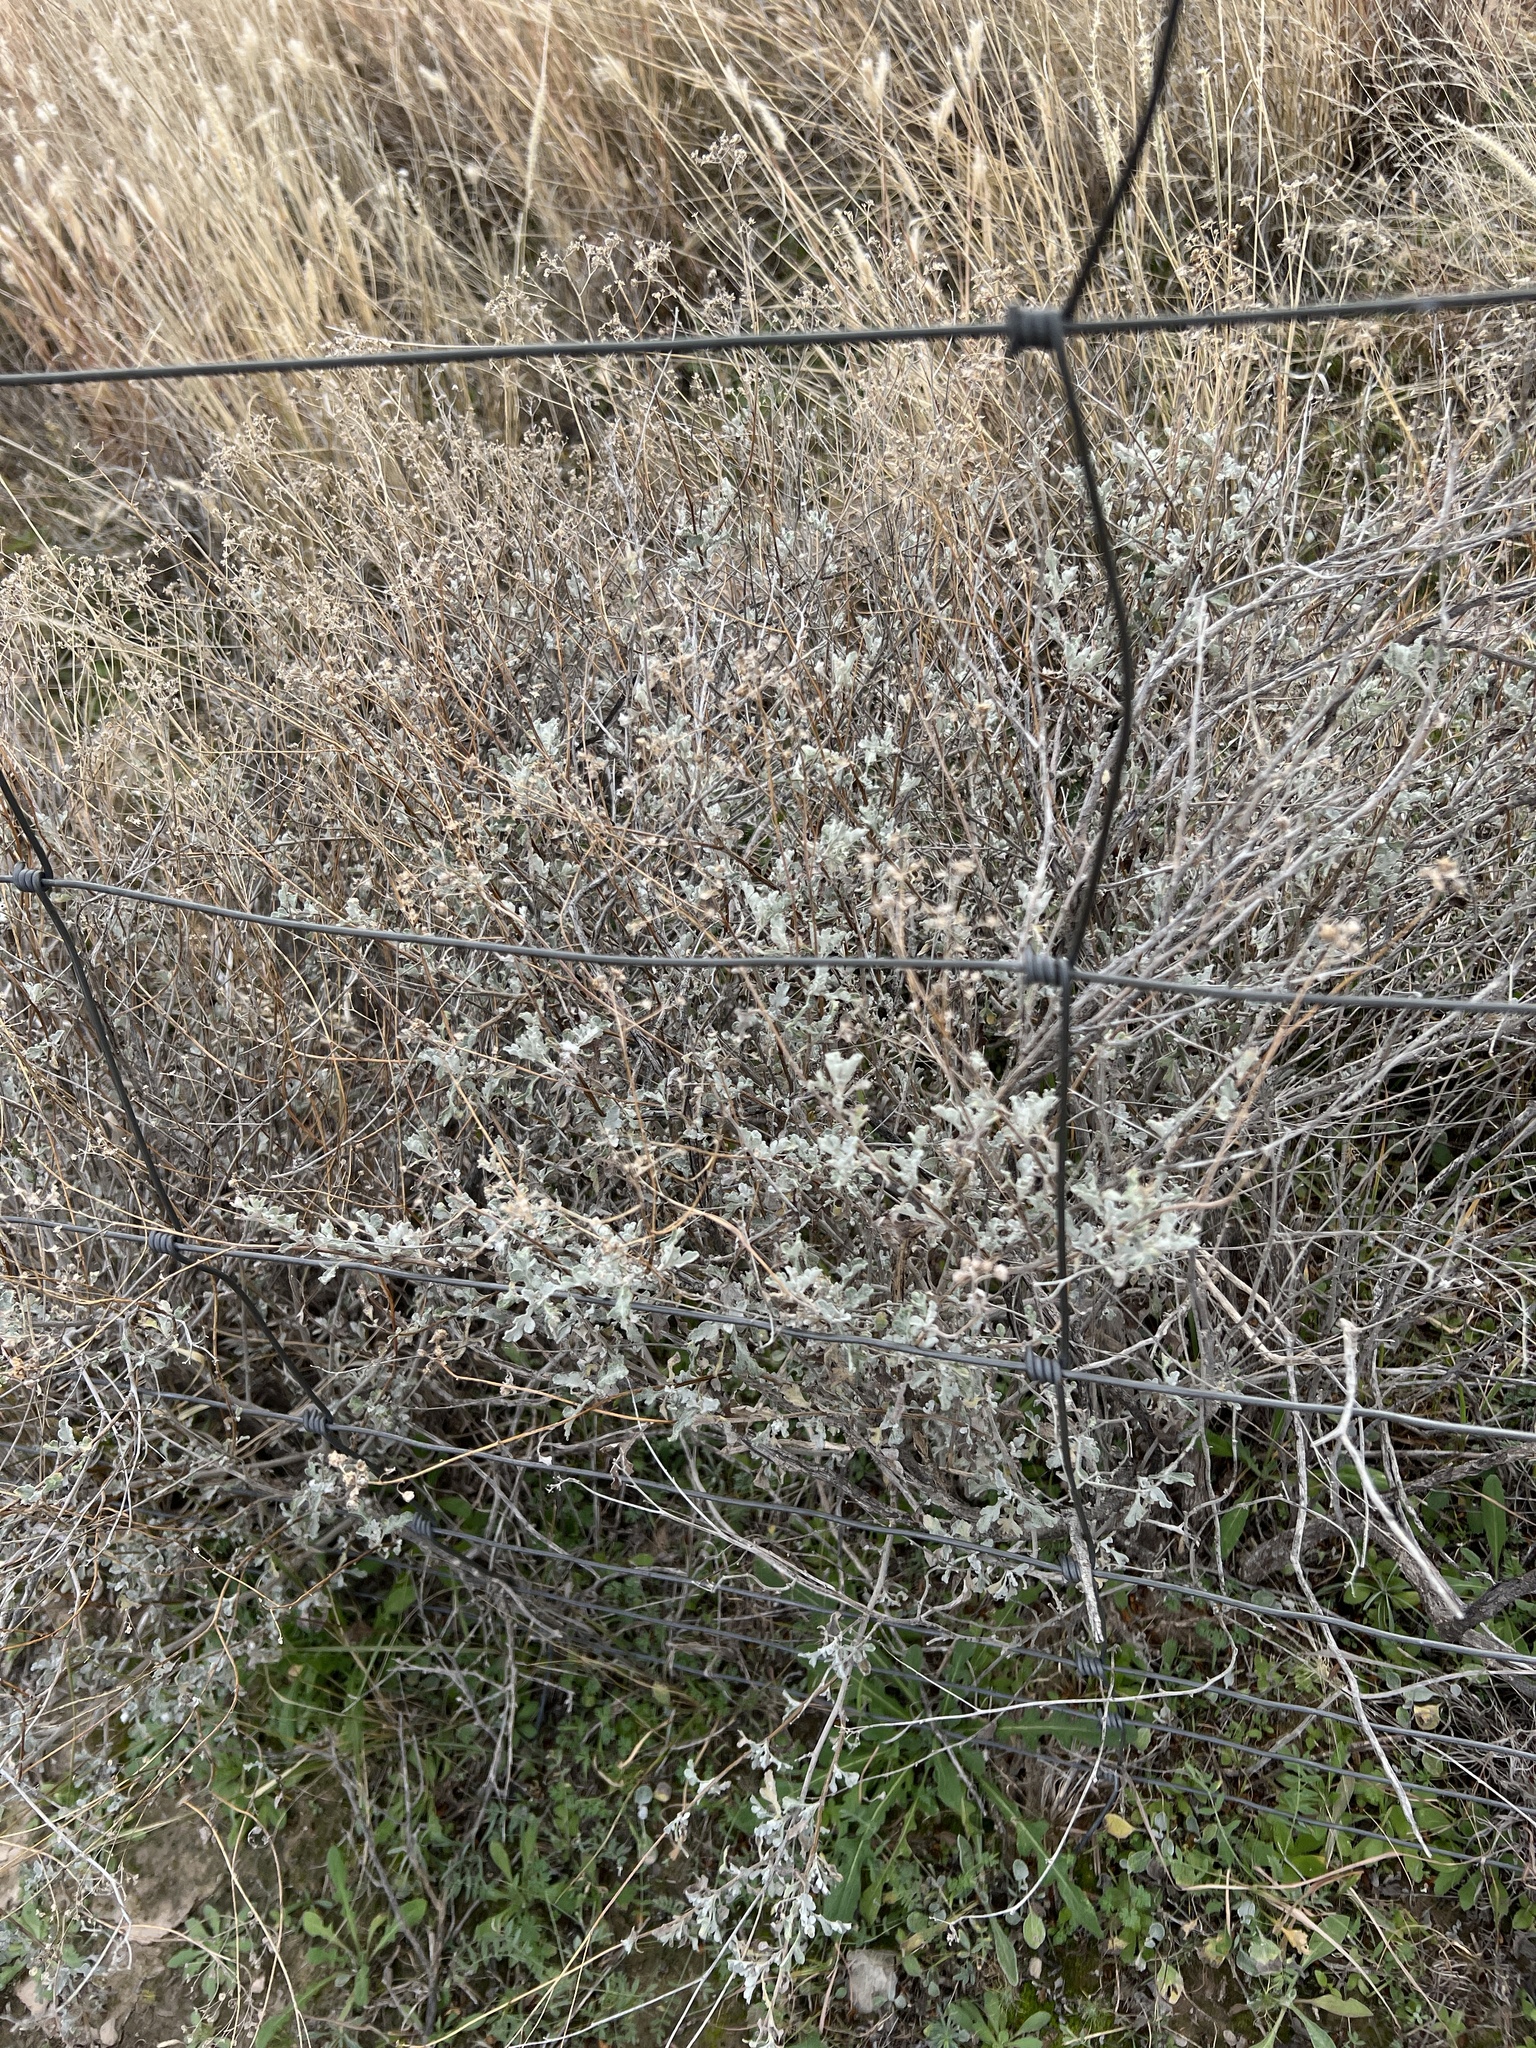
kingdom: Plantae
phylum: Tracheophyta
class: Magnoliopsida
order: Asterales
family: Asteraceae
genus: Parthenium
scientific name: Parthenium incanum
